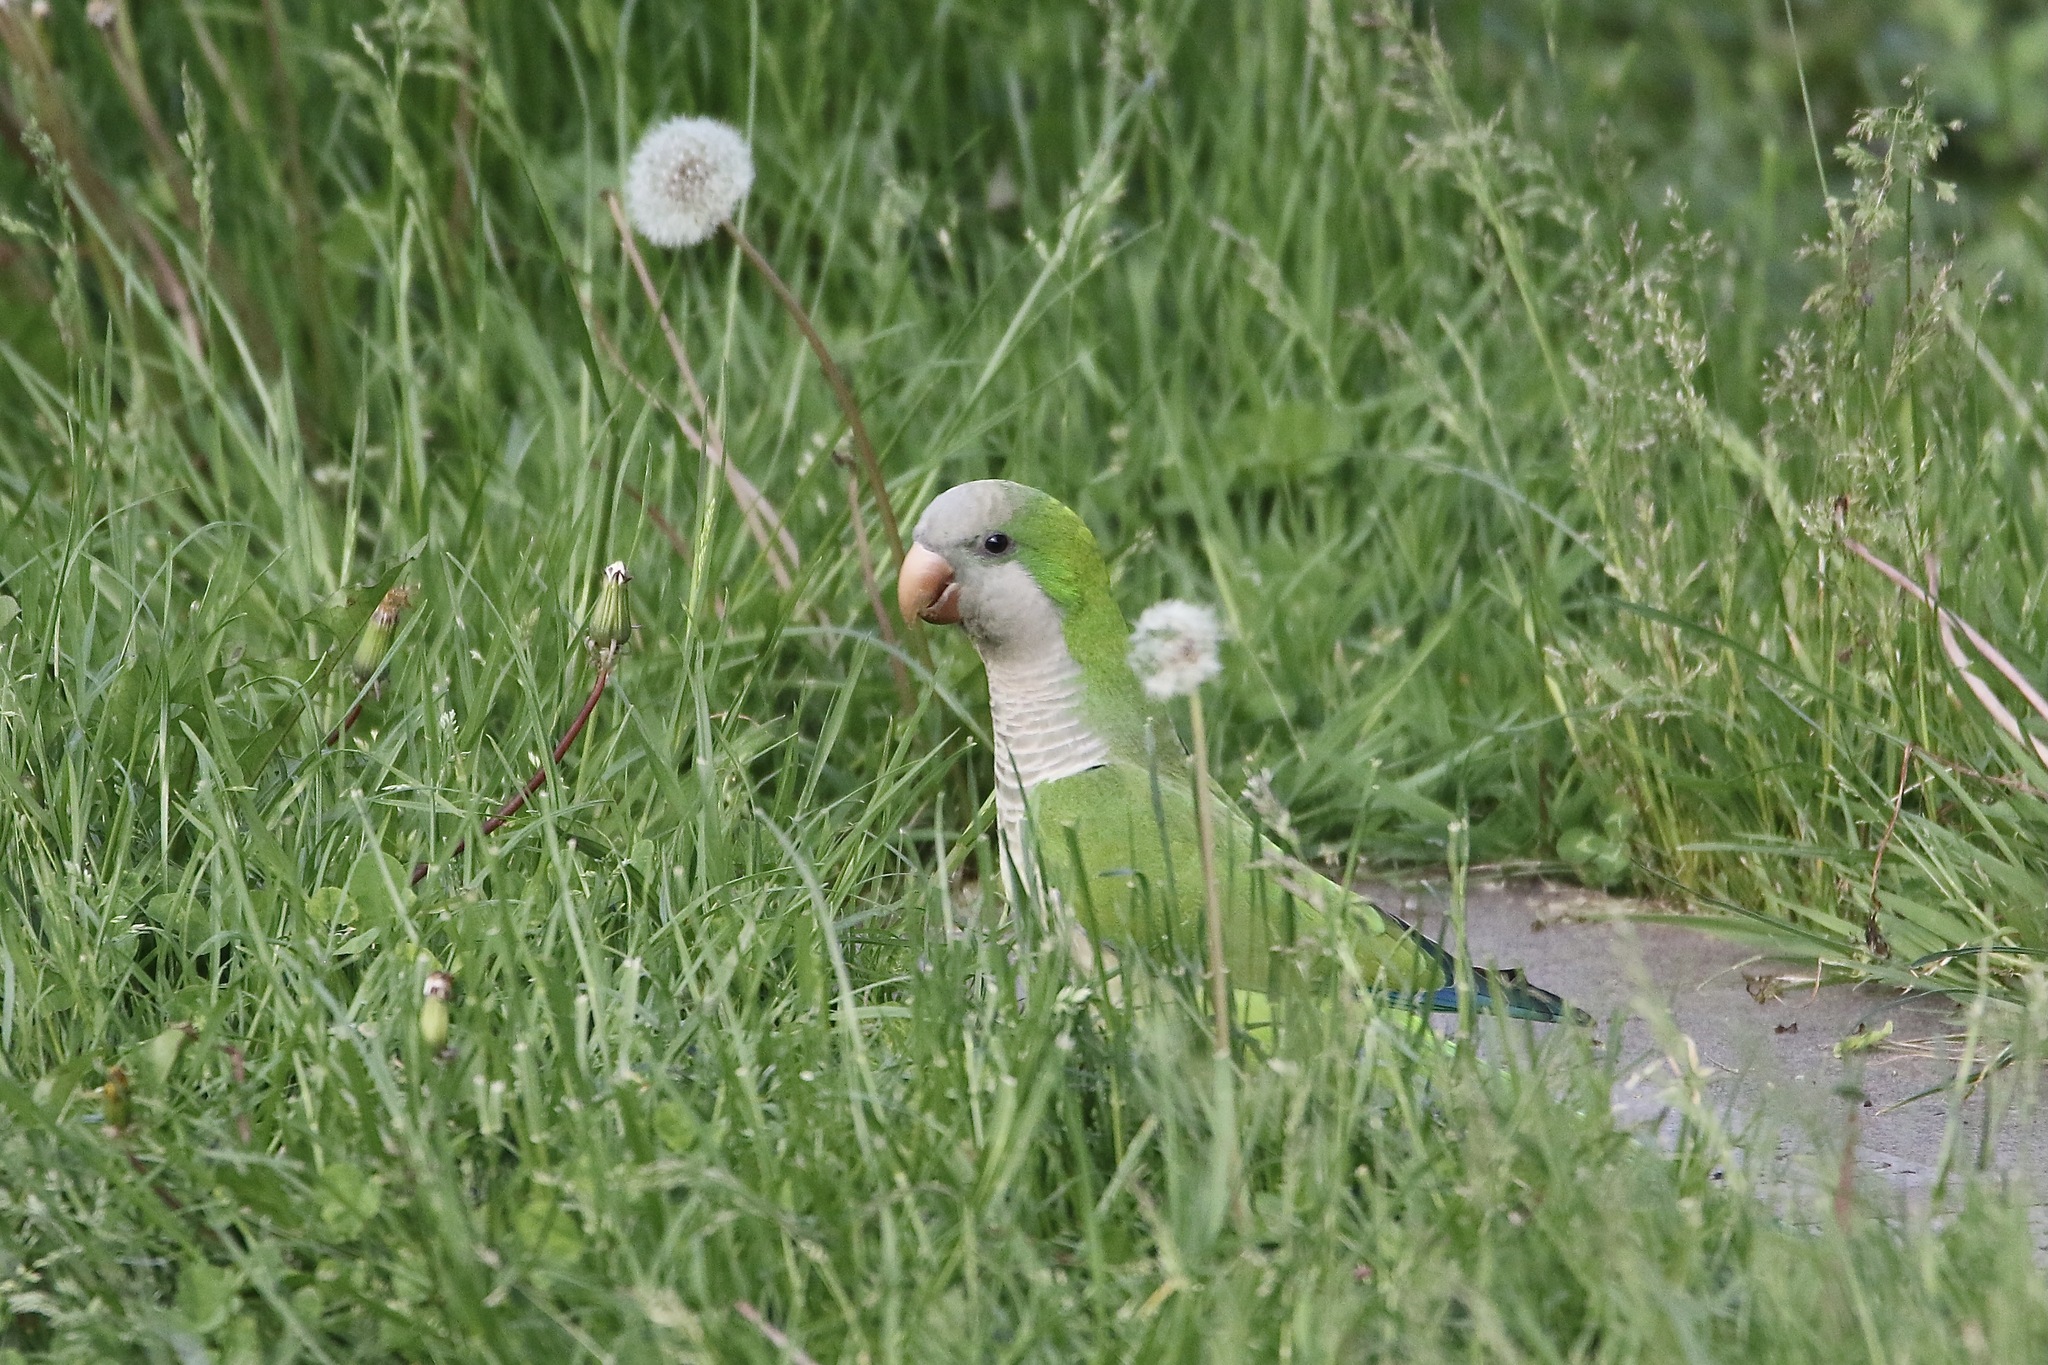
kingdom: Animalia
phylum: Chordata
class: Aves
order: Psittaciformes
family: Psittacidae
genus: Myiopsitta
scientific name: Myiopsitta monachus
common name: Monk parakeet
